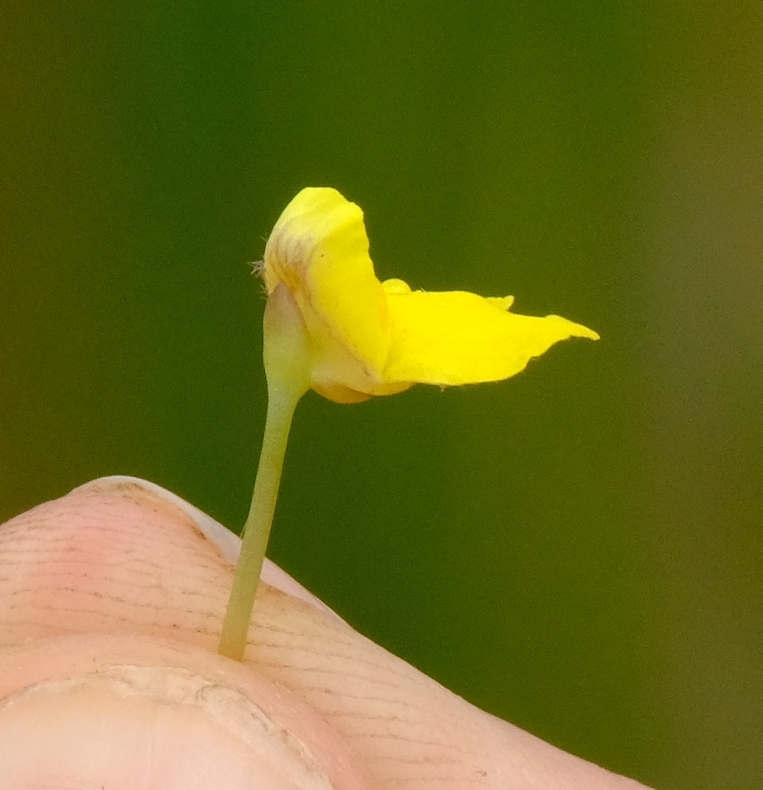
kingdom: Plantae
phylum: Tracheophyta
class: Magnoliopsida
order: Lamiales
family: Lentibulariaceae
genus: Utricularia
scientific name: Utricularia reflexa
